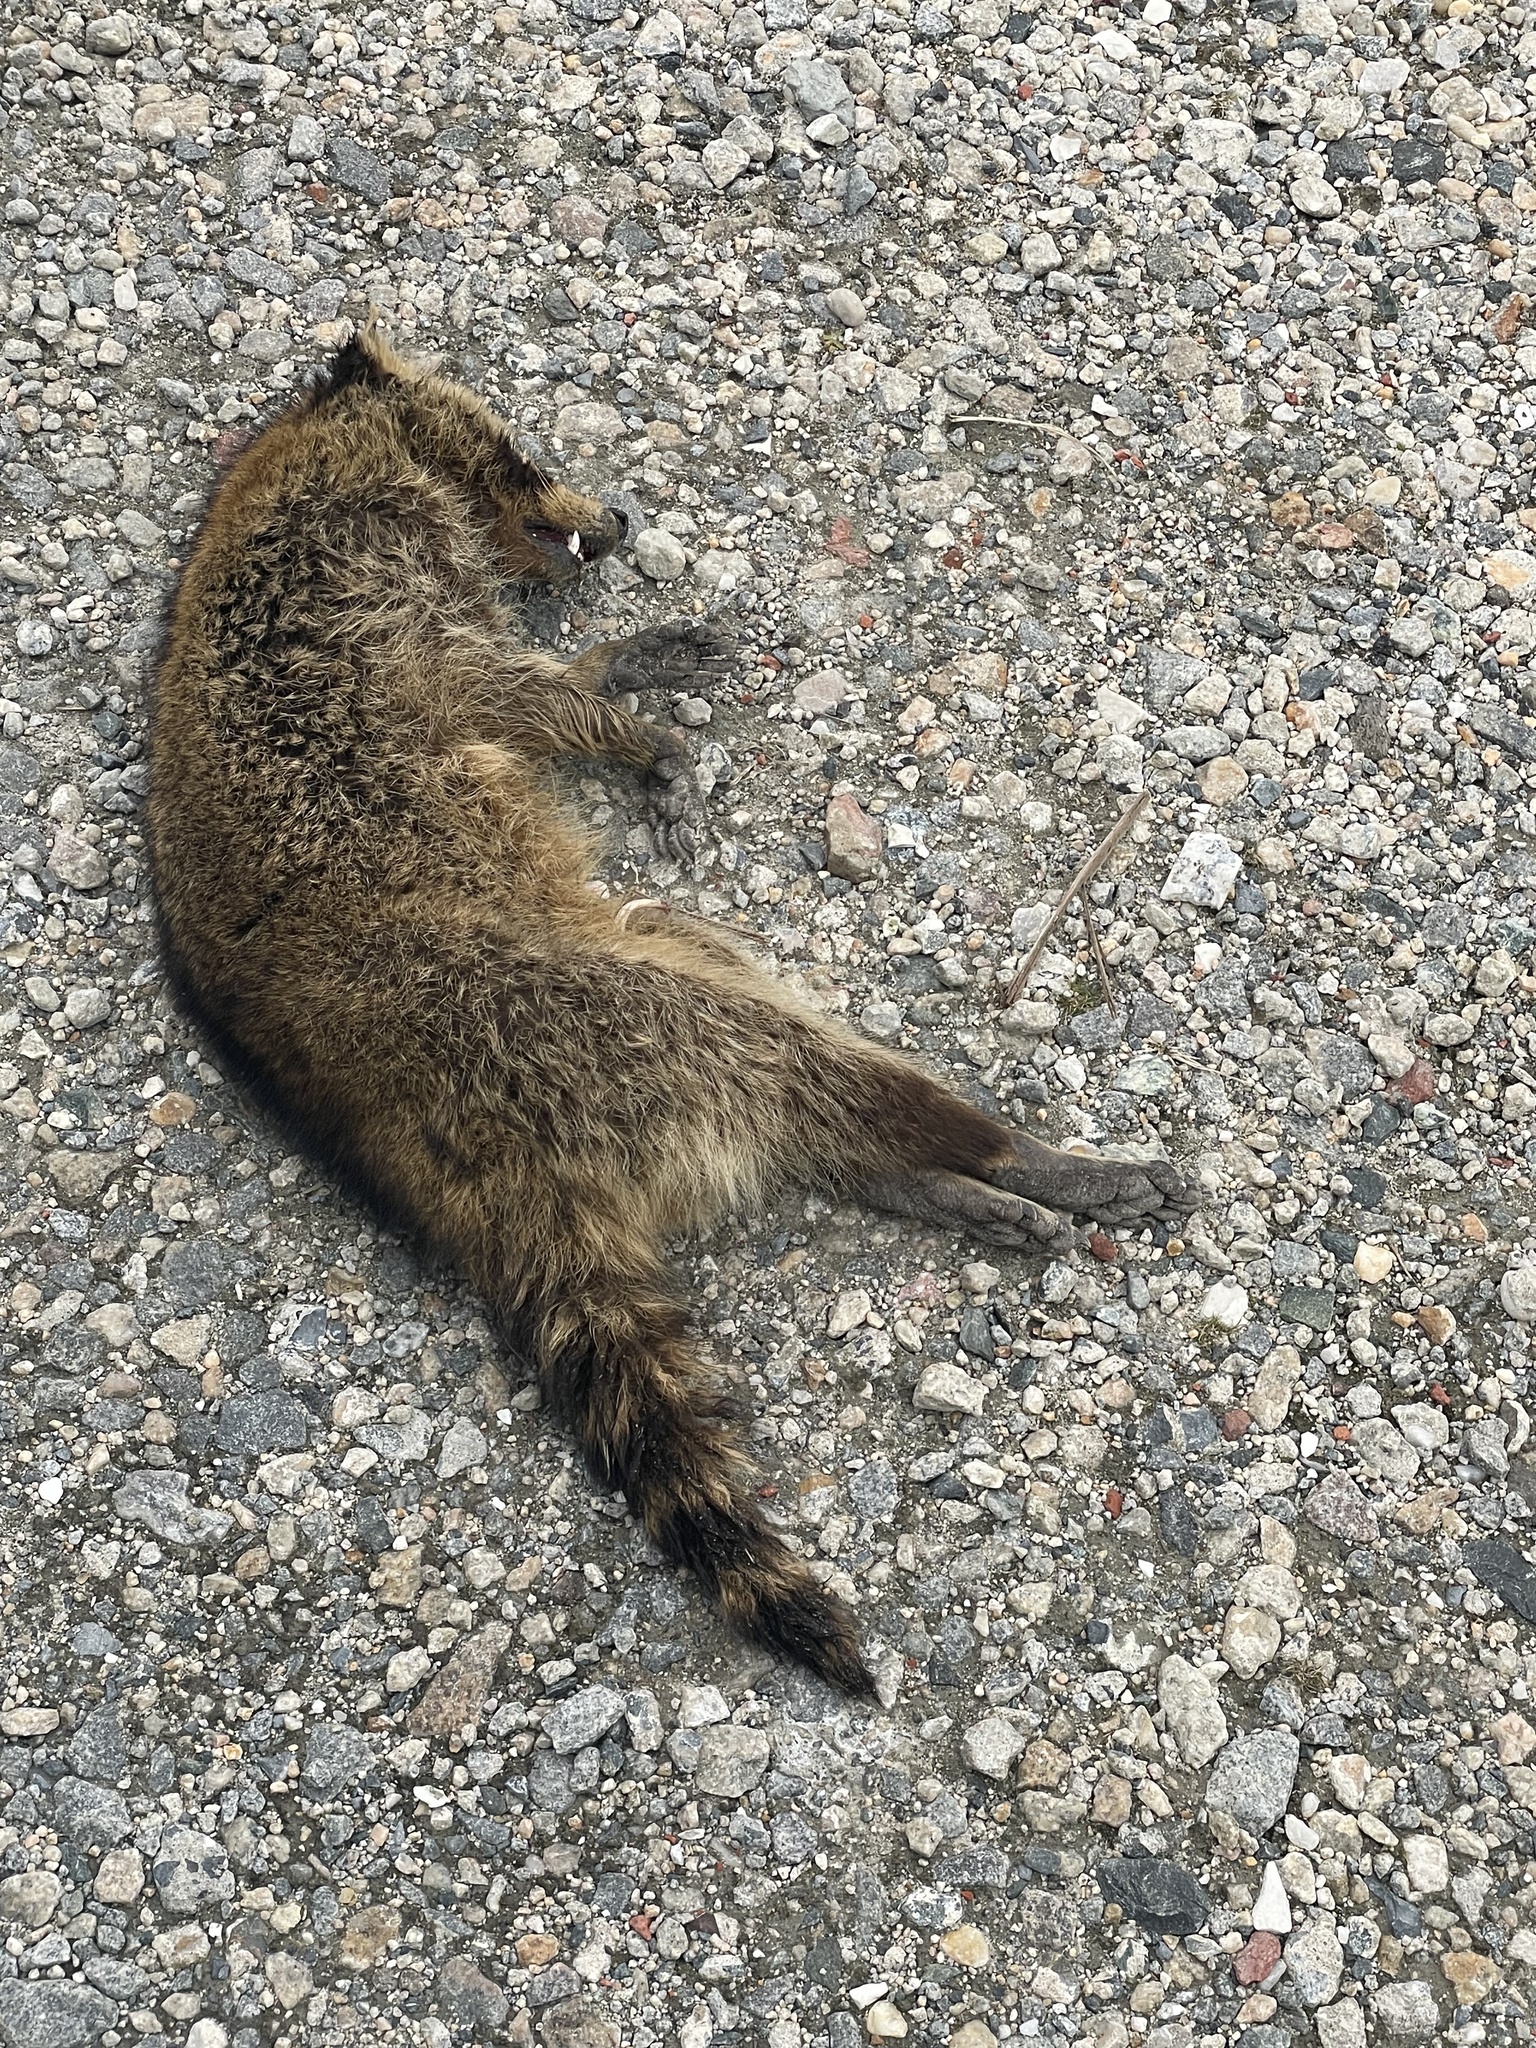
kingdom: Animalia
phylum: Chordata
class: Mammalia
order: Carnivora
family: Procyonidae
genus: Procyon
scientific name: Procyon lotor
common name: Raccoon
